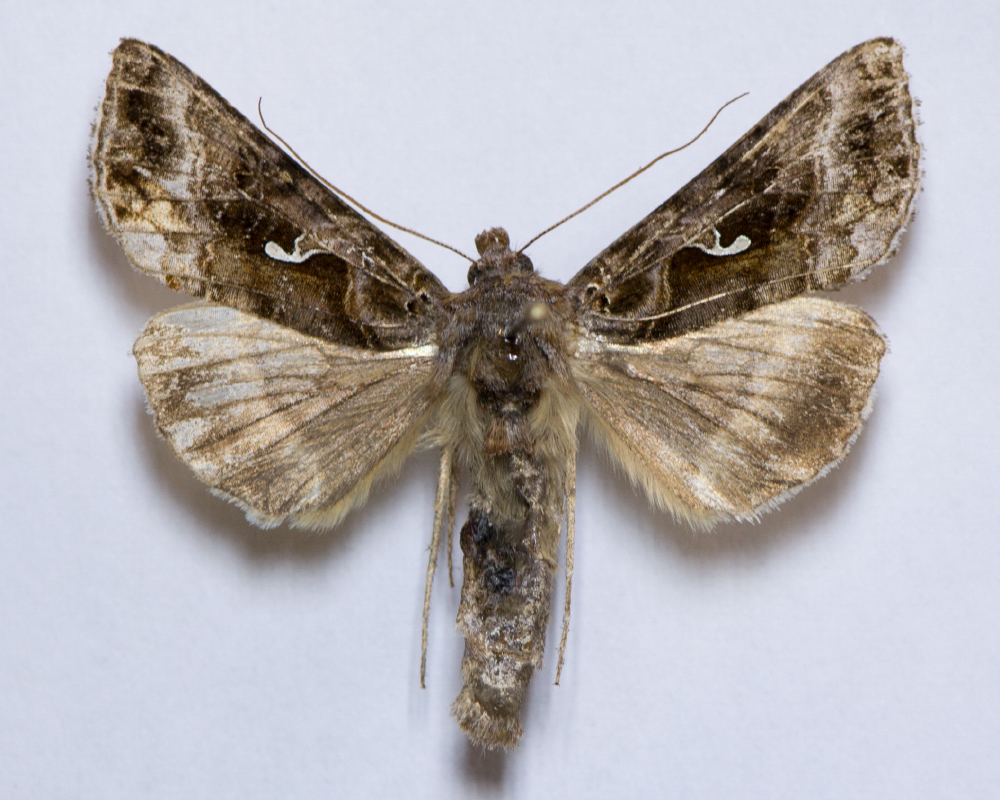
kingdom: Animalia
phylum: Arthropoda
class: Insecta
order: Lepidoptera
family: Noctuidae
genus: Autographa
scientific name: Autographa buraetica
